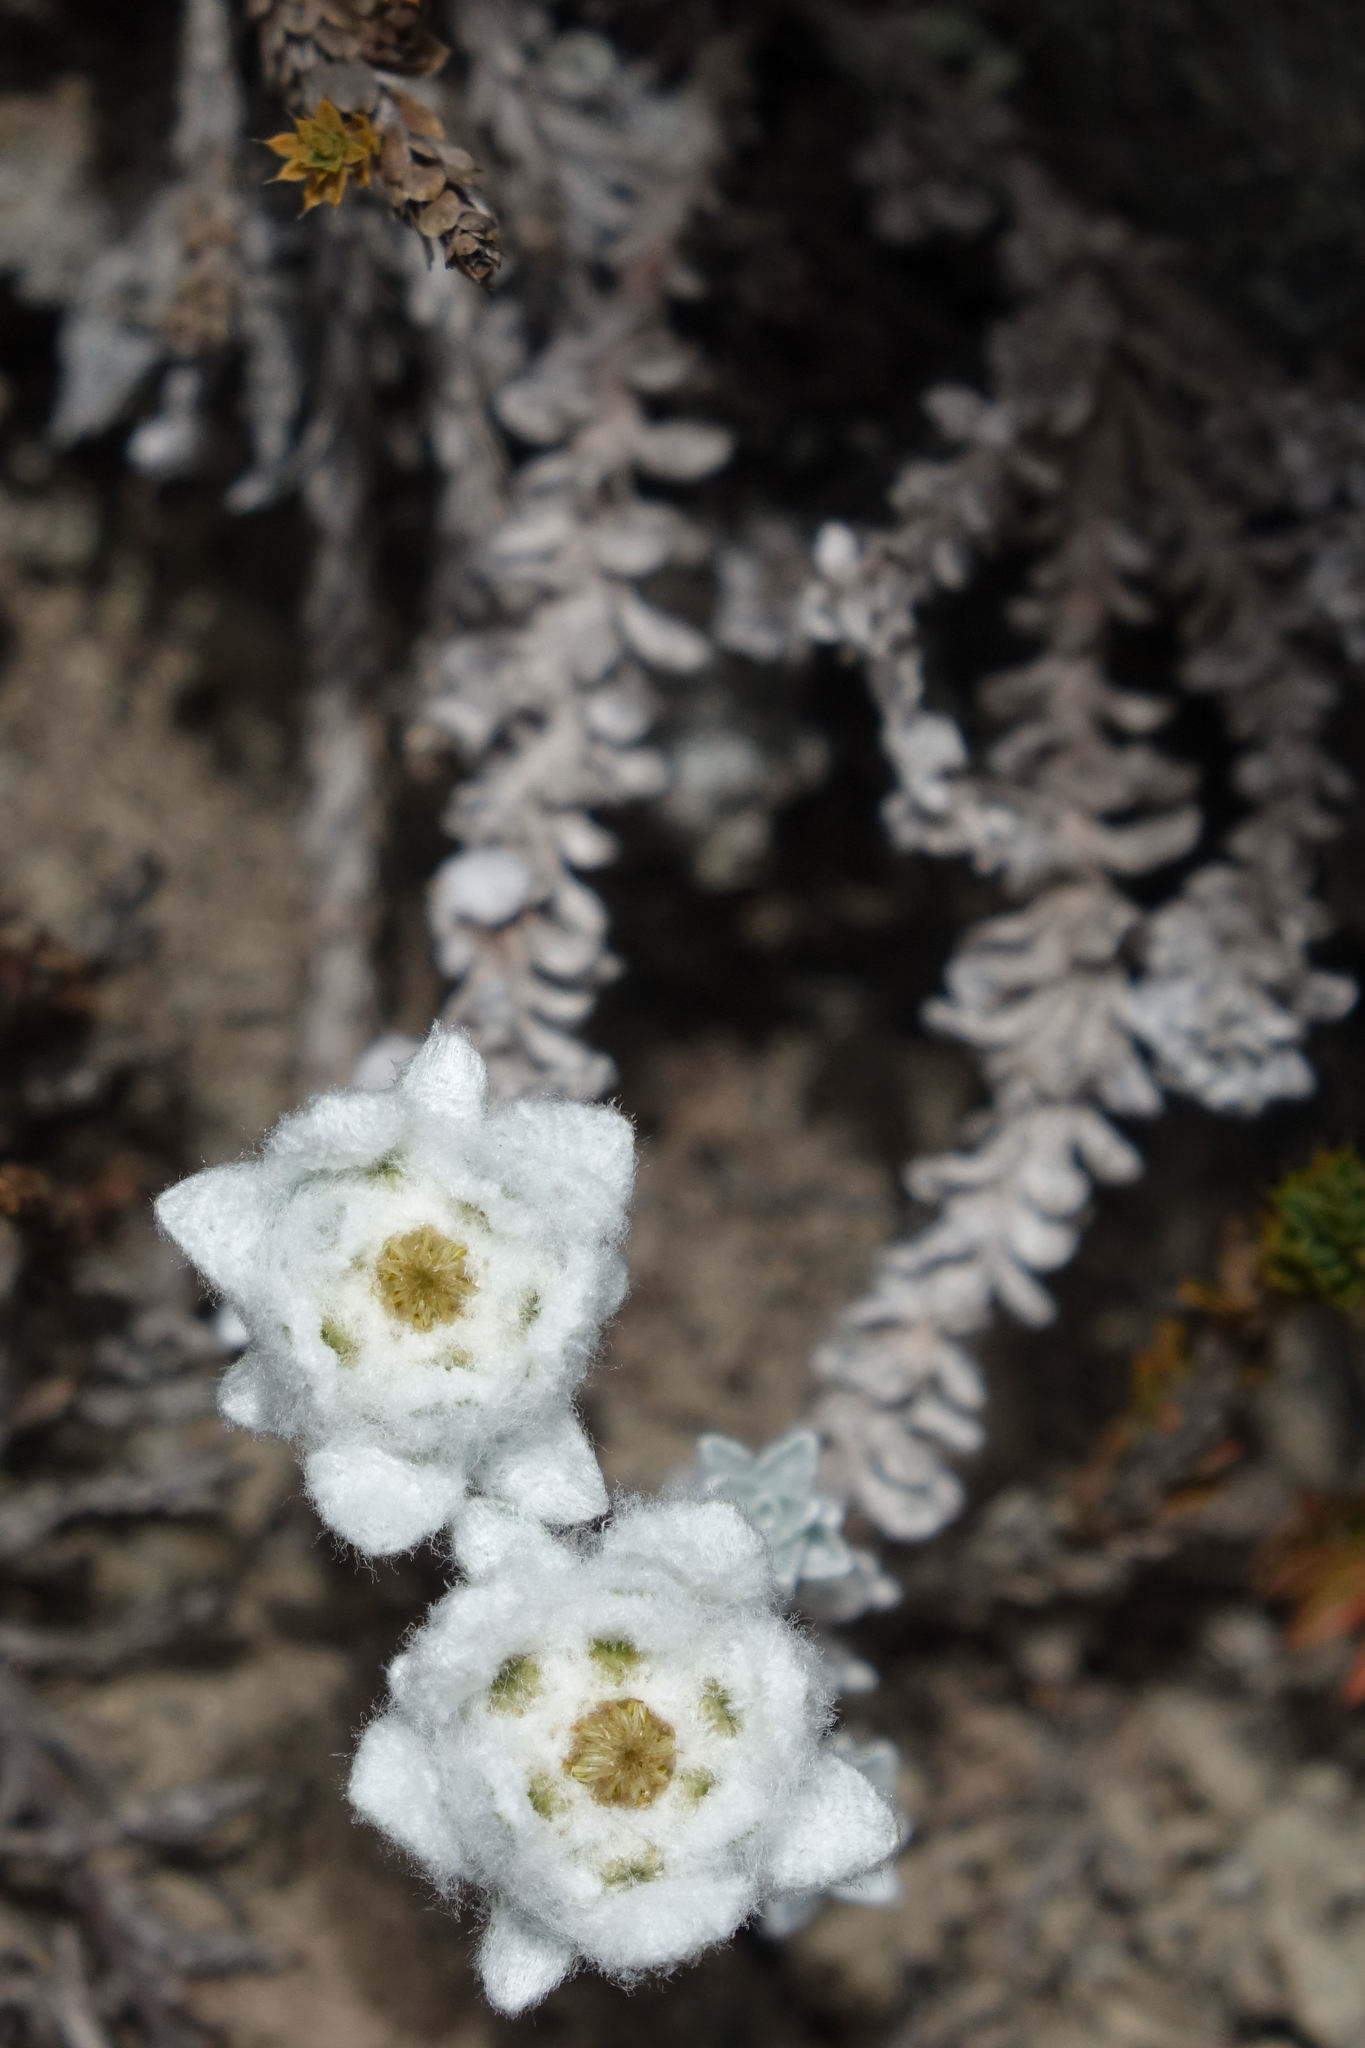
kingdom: Plantae
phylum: Tracheophyta
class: Magnoliopsida
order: Asterales
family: Asteraceae
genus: Leucogenes
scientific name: Leucogenes grandiceps
